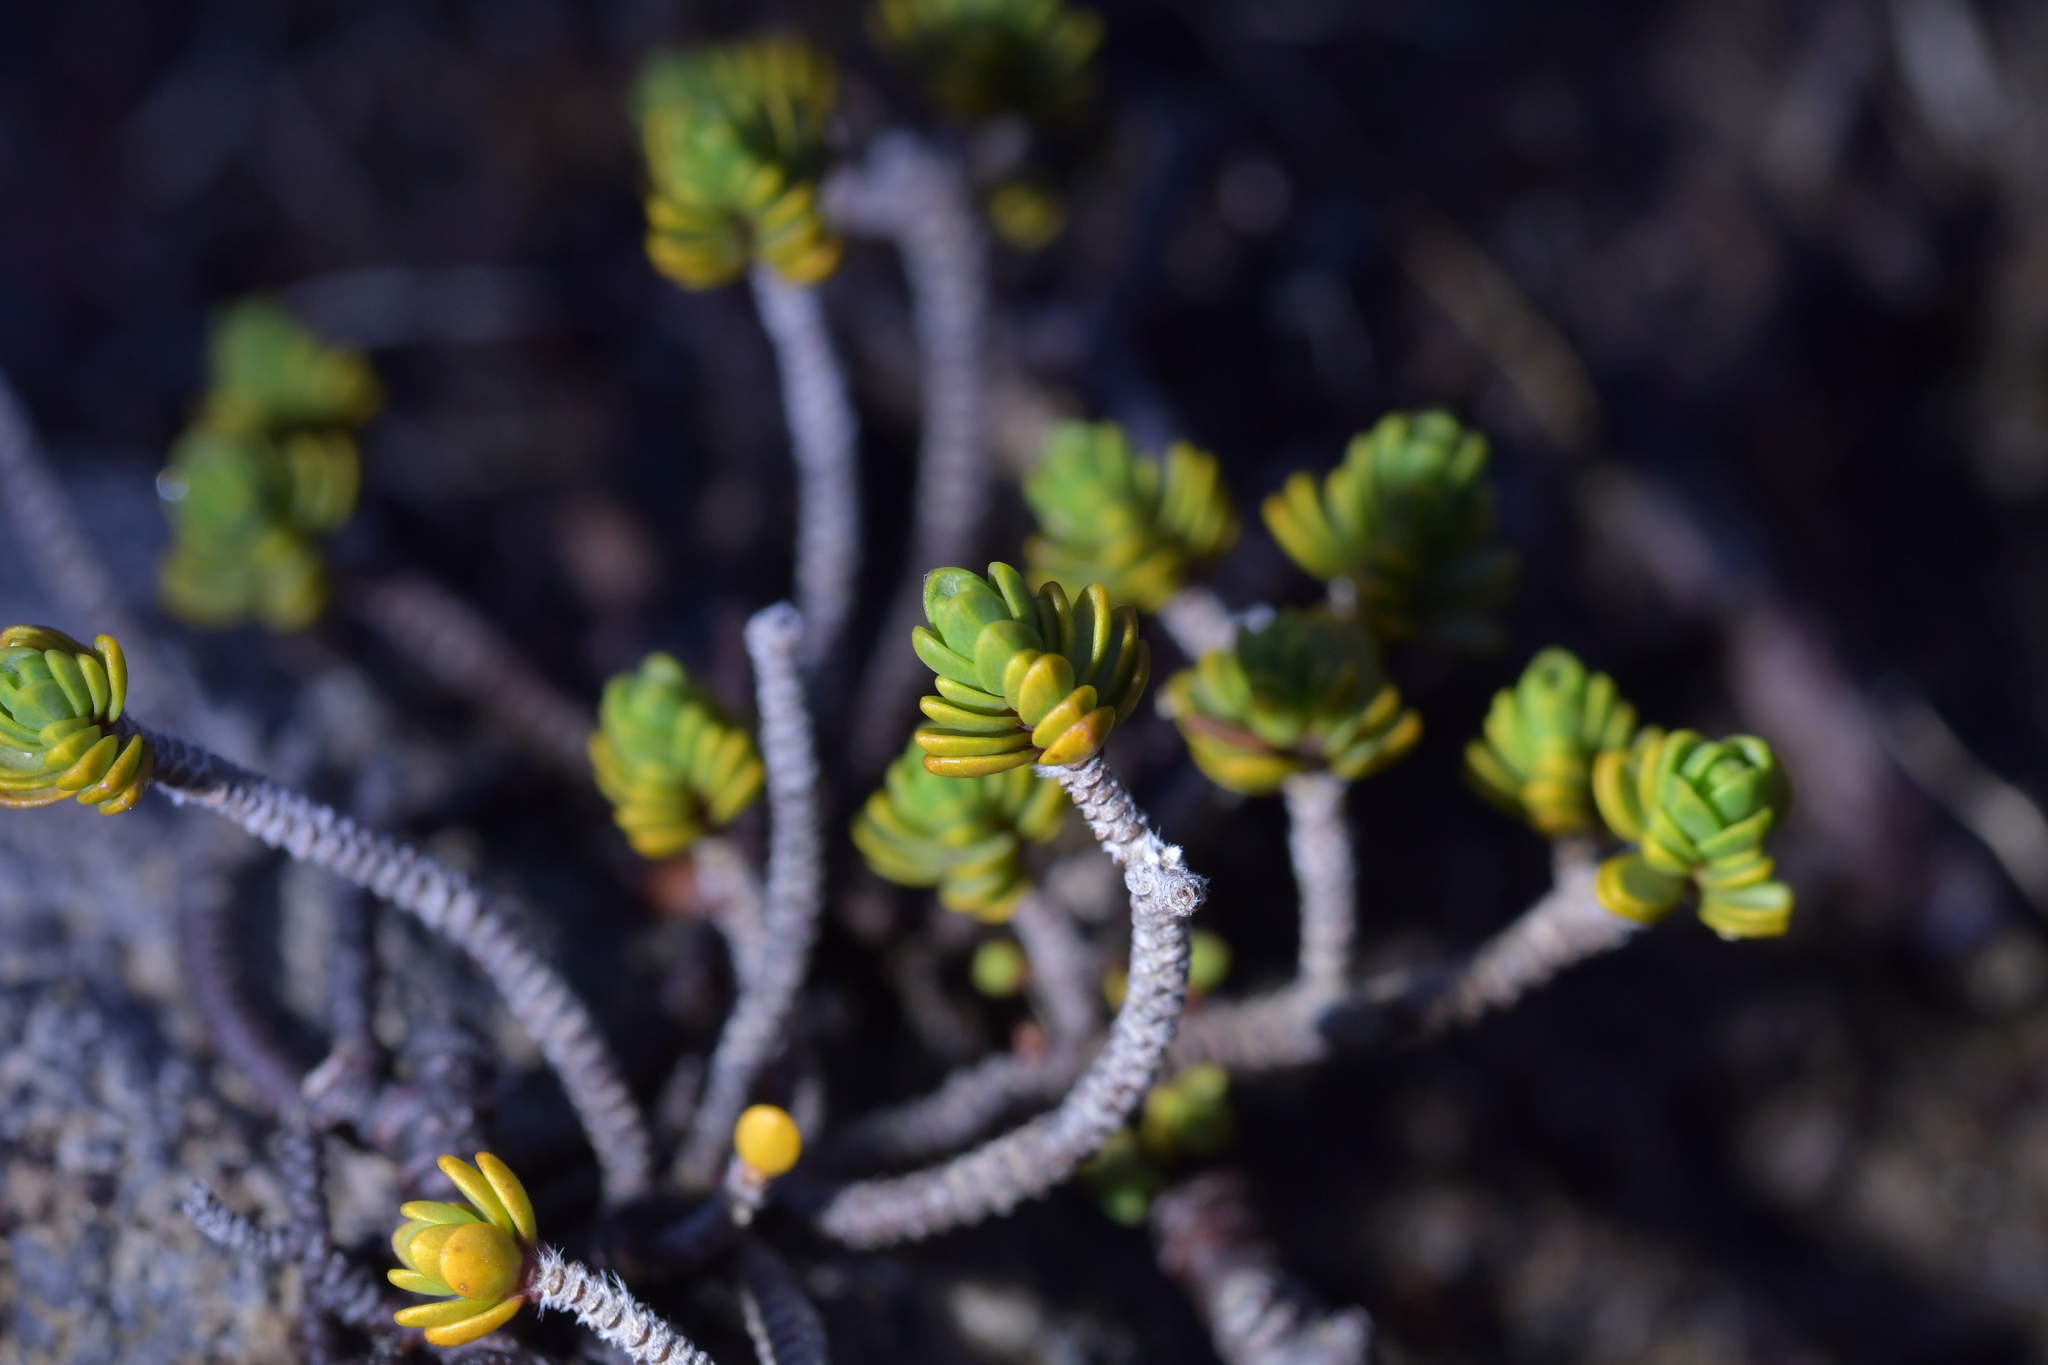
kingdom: Plantae
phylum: Tracheophyta
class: Magnoliopsida
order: Malvales
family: Thymelaeaceae
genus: Pimelea
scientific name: Pimelea microphylla
